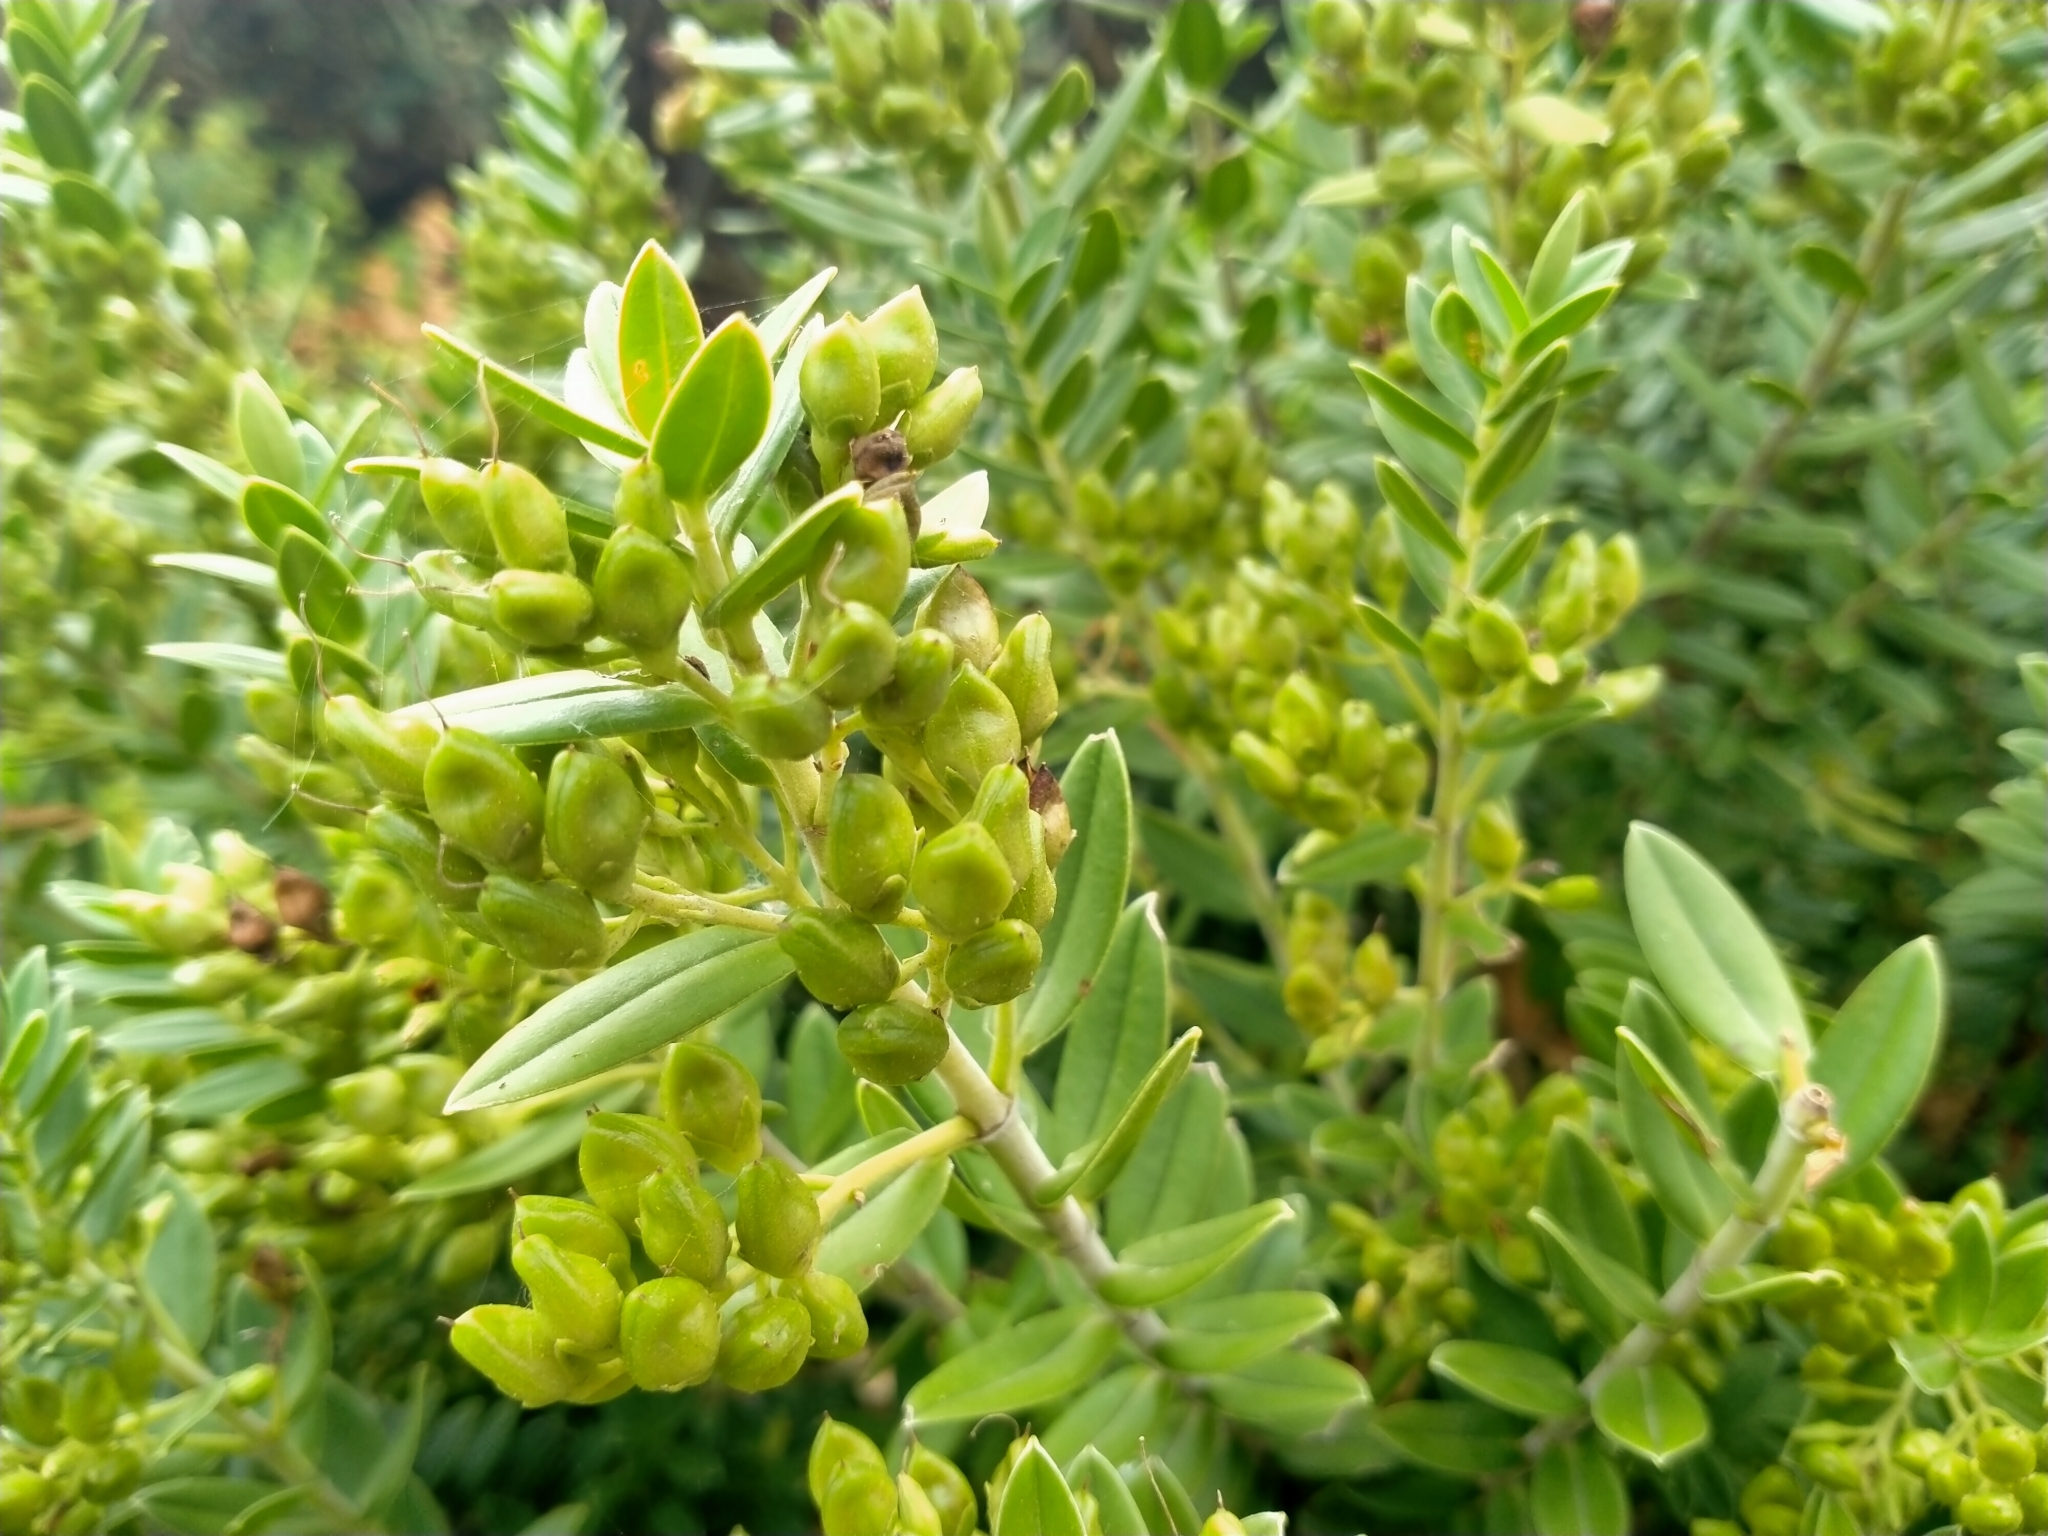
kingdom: Plantae
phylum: Tracheophyta
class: Magnoliopsida
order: Lamiales
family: Plantaginaceae
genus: Veronica
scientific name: Veronica elliptica
